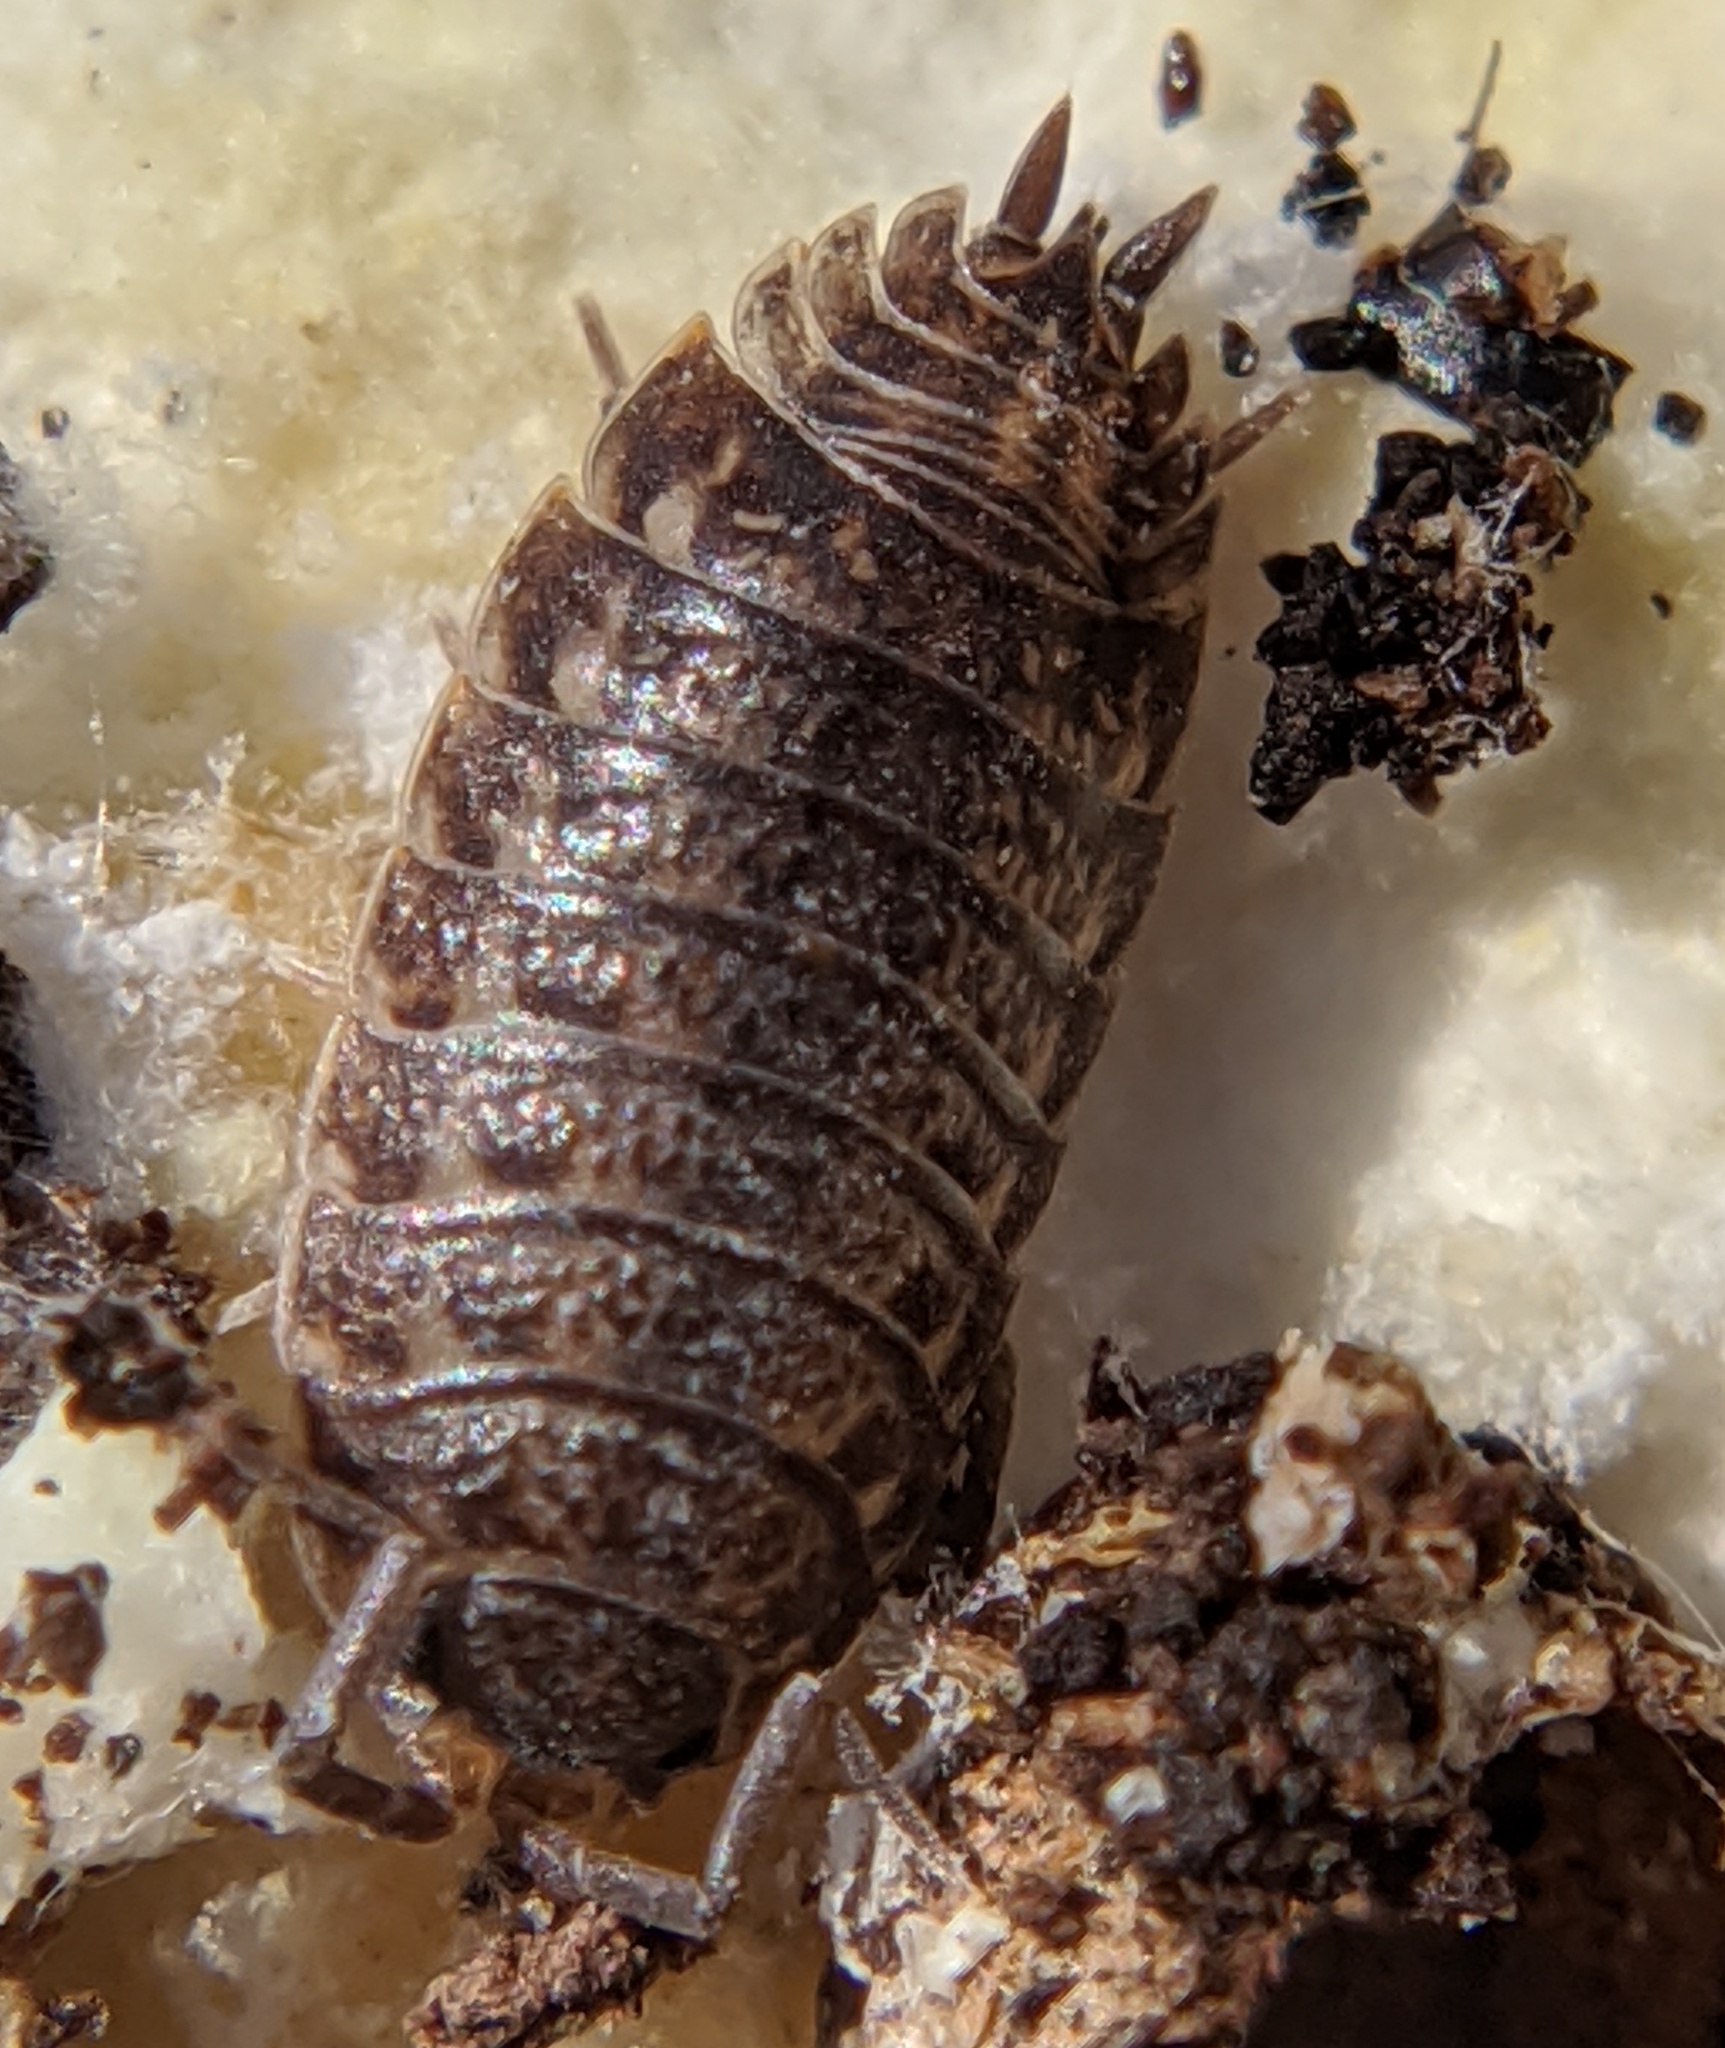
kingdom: Animalia
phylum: Arthropoda
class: Malacostraca
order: Isopoda
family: Trachelipodidae
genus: Trachelipus
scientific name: Trachelipus rathkii
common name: Isopod
